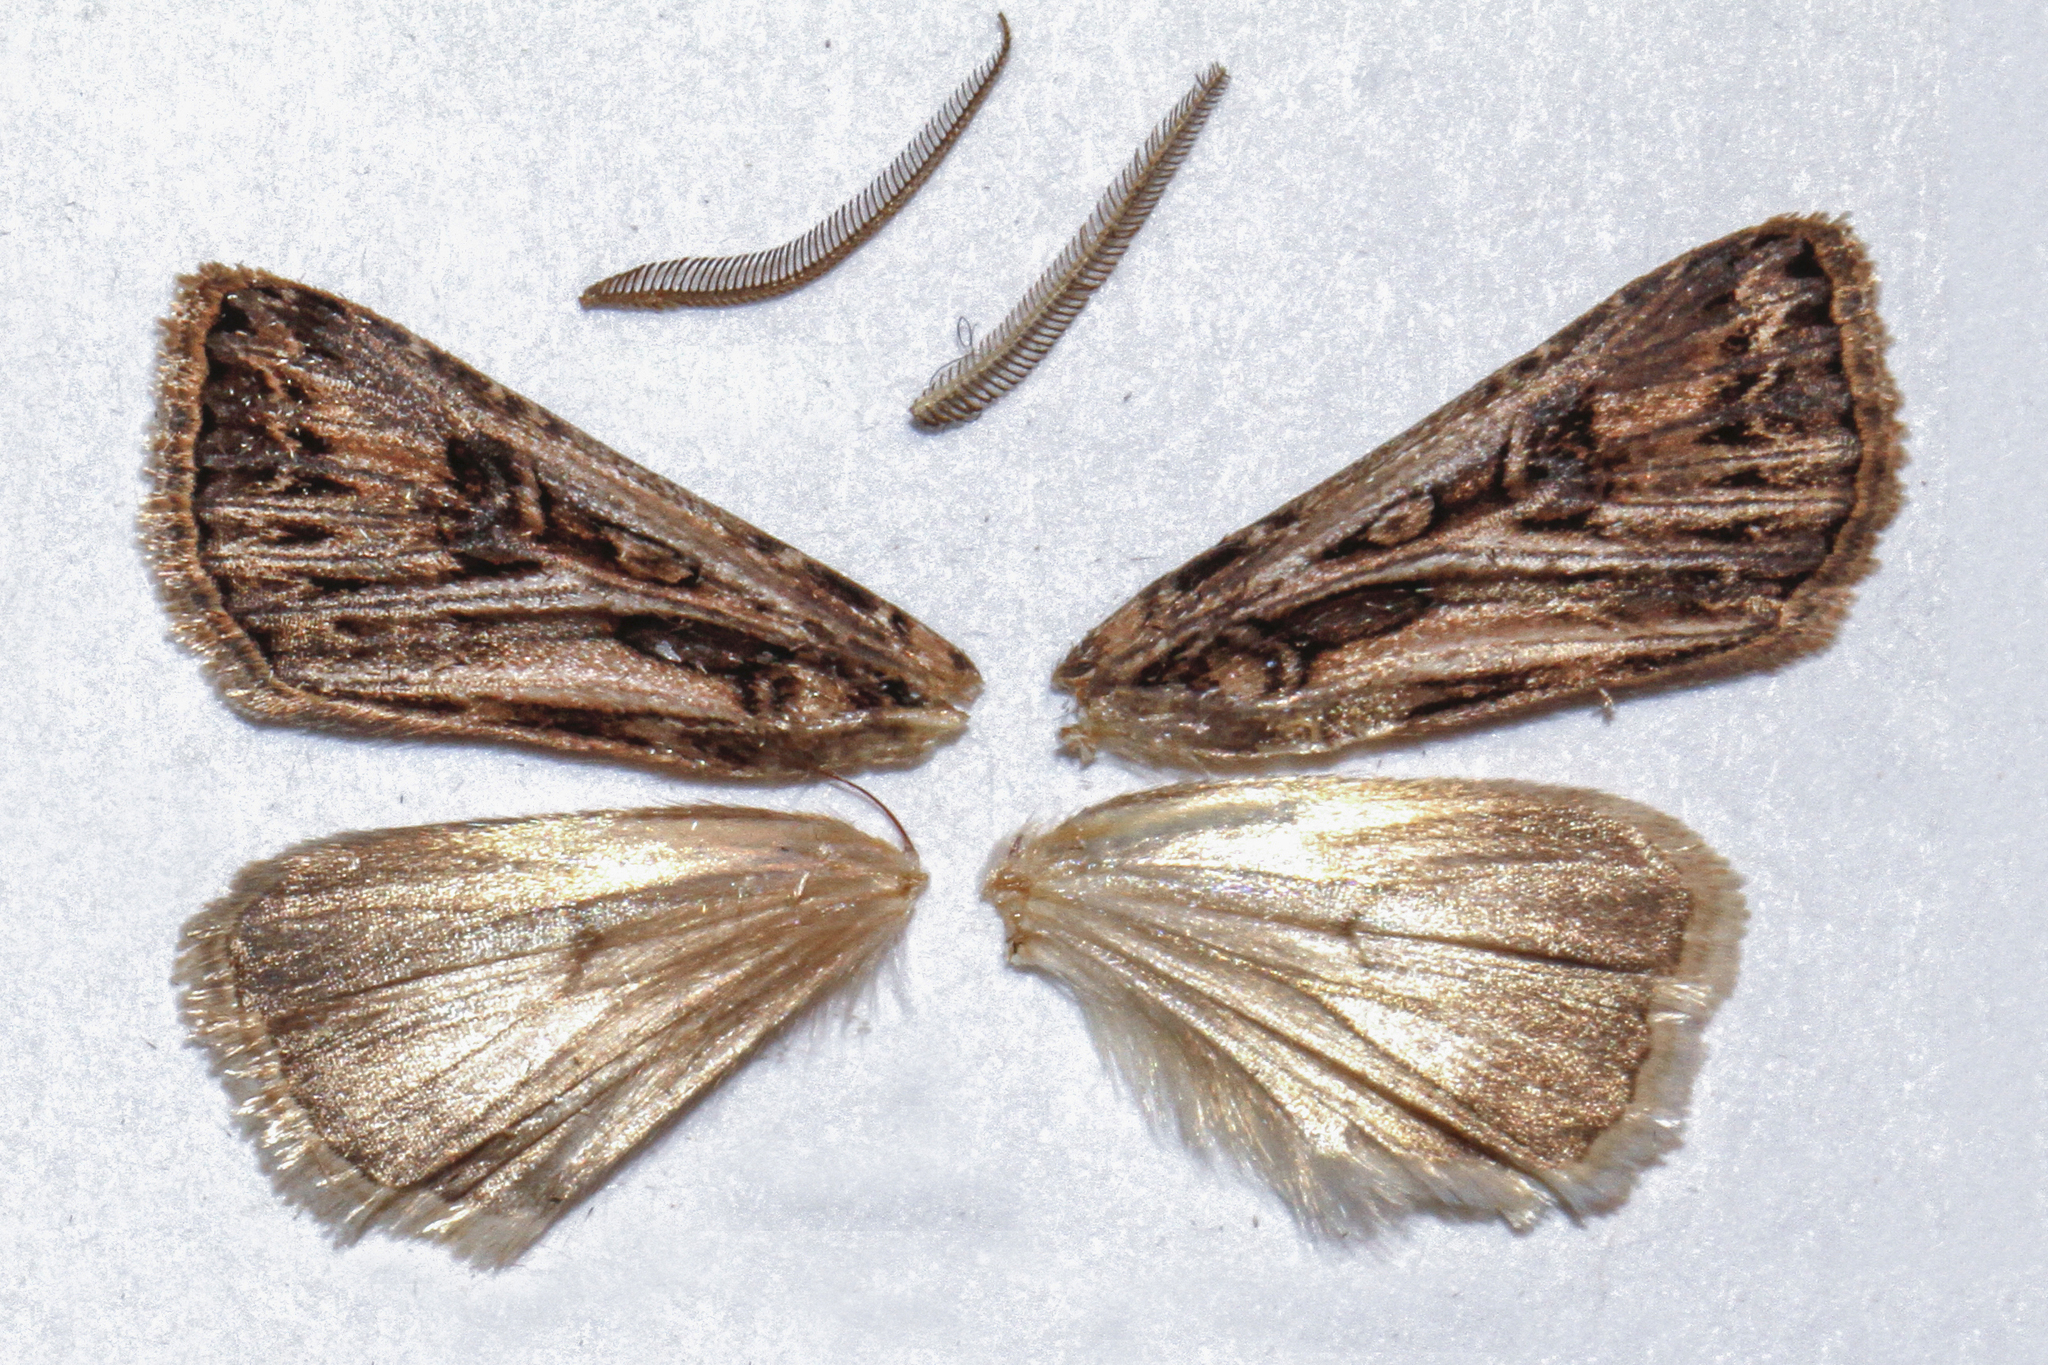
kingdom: Animalia
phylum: Arthropoda
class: Insecta
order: Lepidoptera
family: Noctuidae
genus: Agrotis
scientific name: Agrotis gladiaria
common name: Claybacked cutworm
